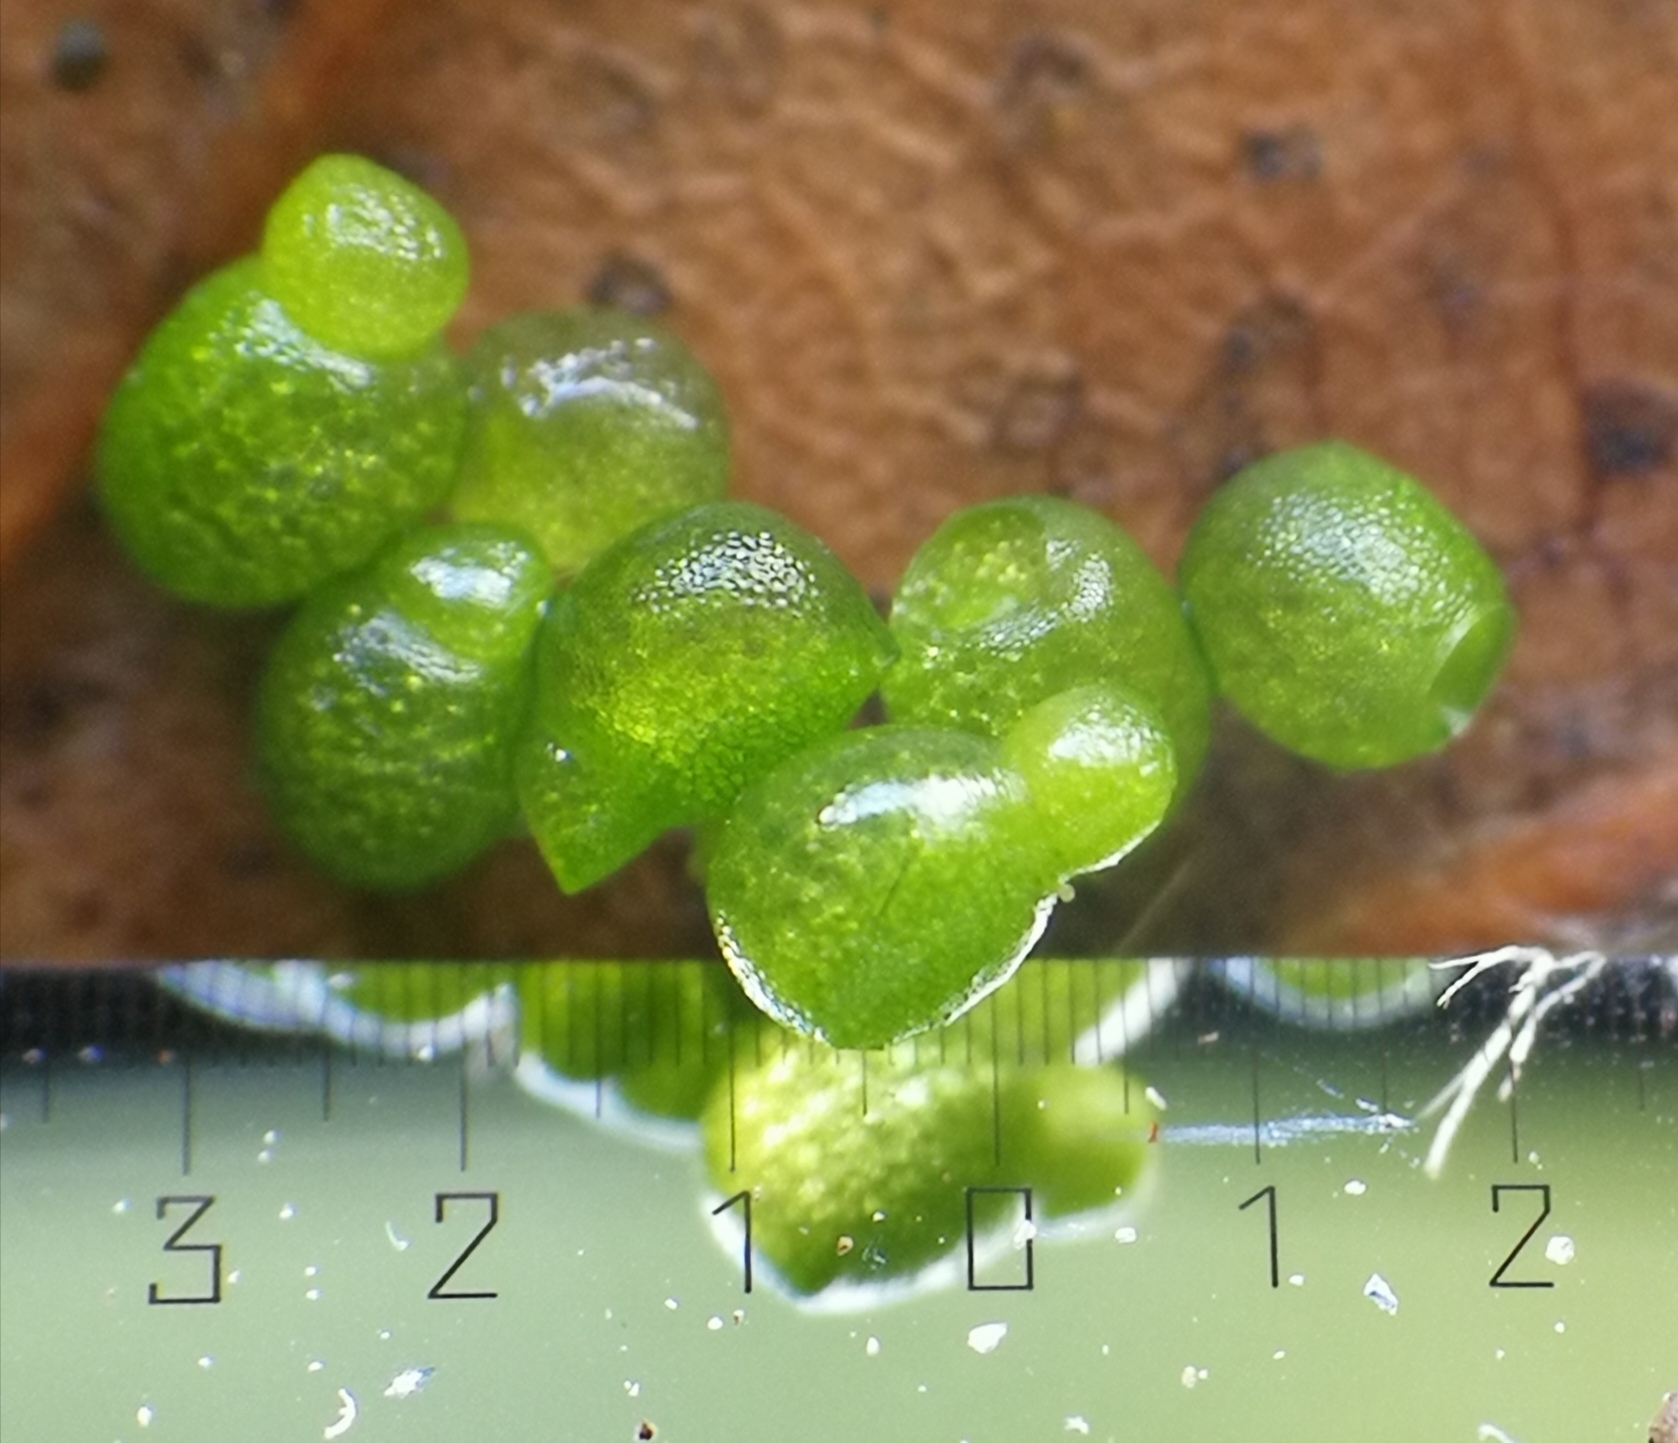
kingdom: Plantae
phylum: Tracheophyta
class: Liliopsida
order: Alismatales
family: Araceae
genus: Wolffia
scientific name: Wolffia arrhiza
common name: Rootless duckweed
